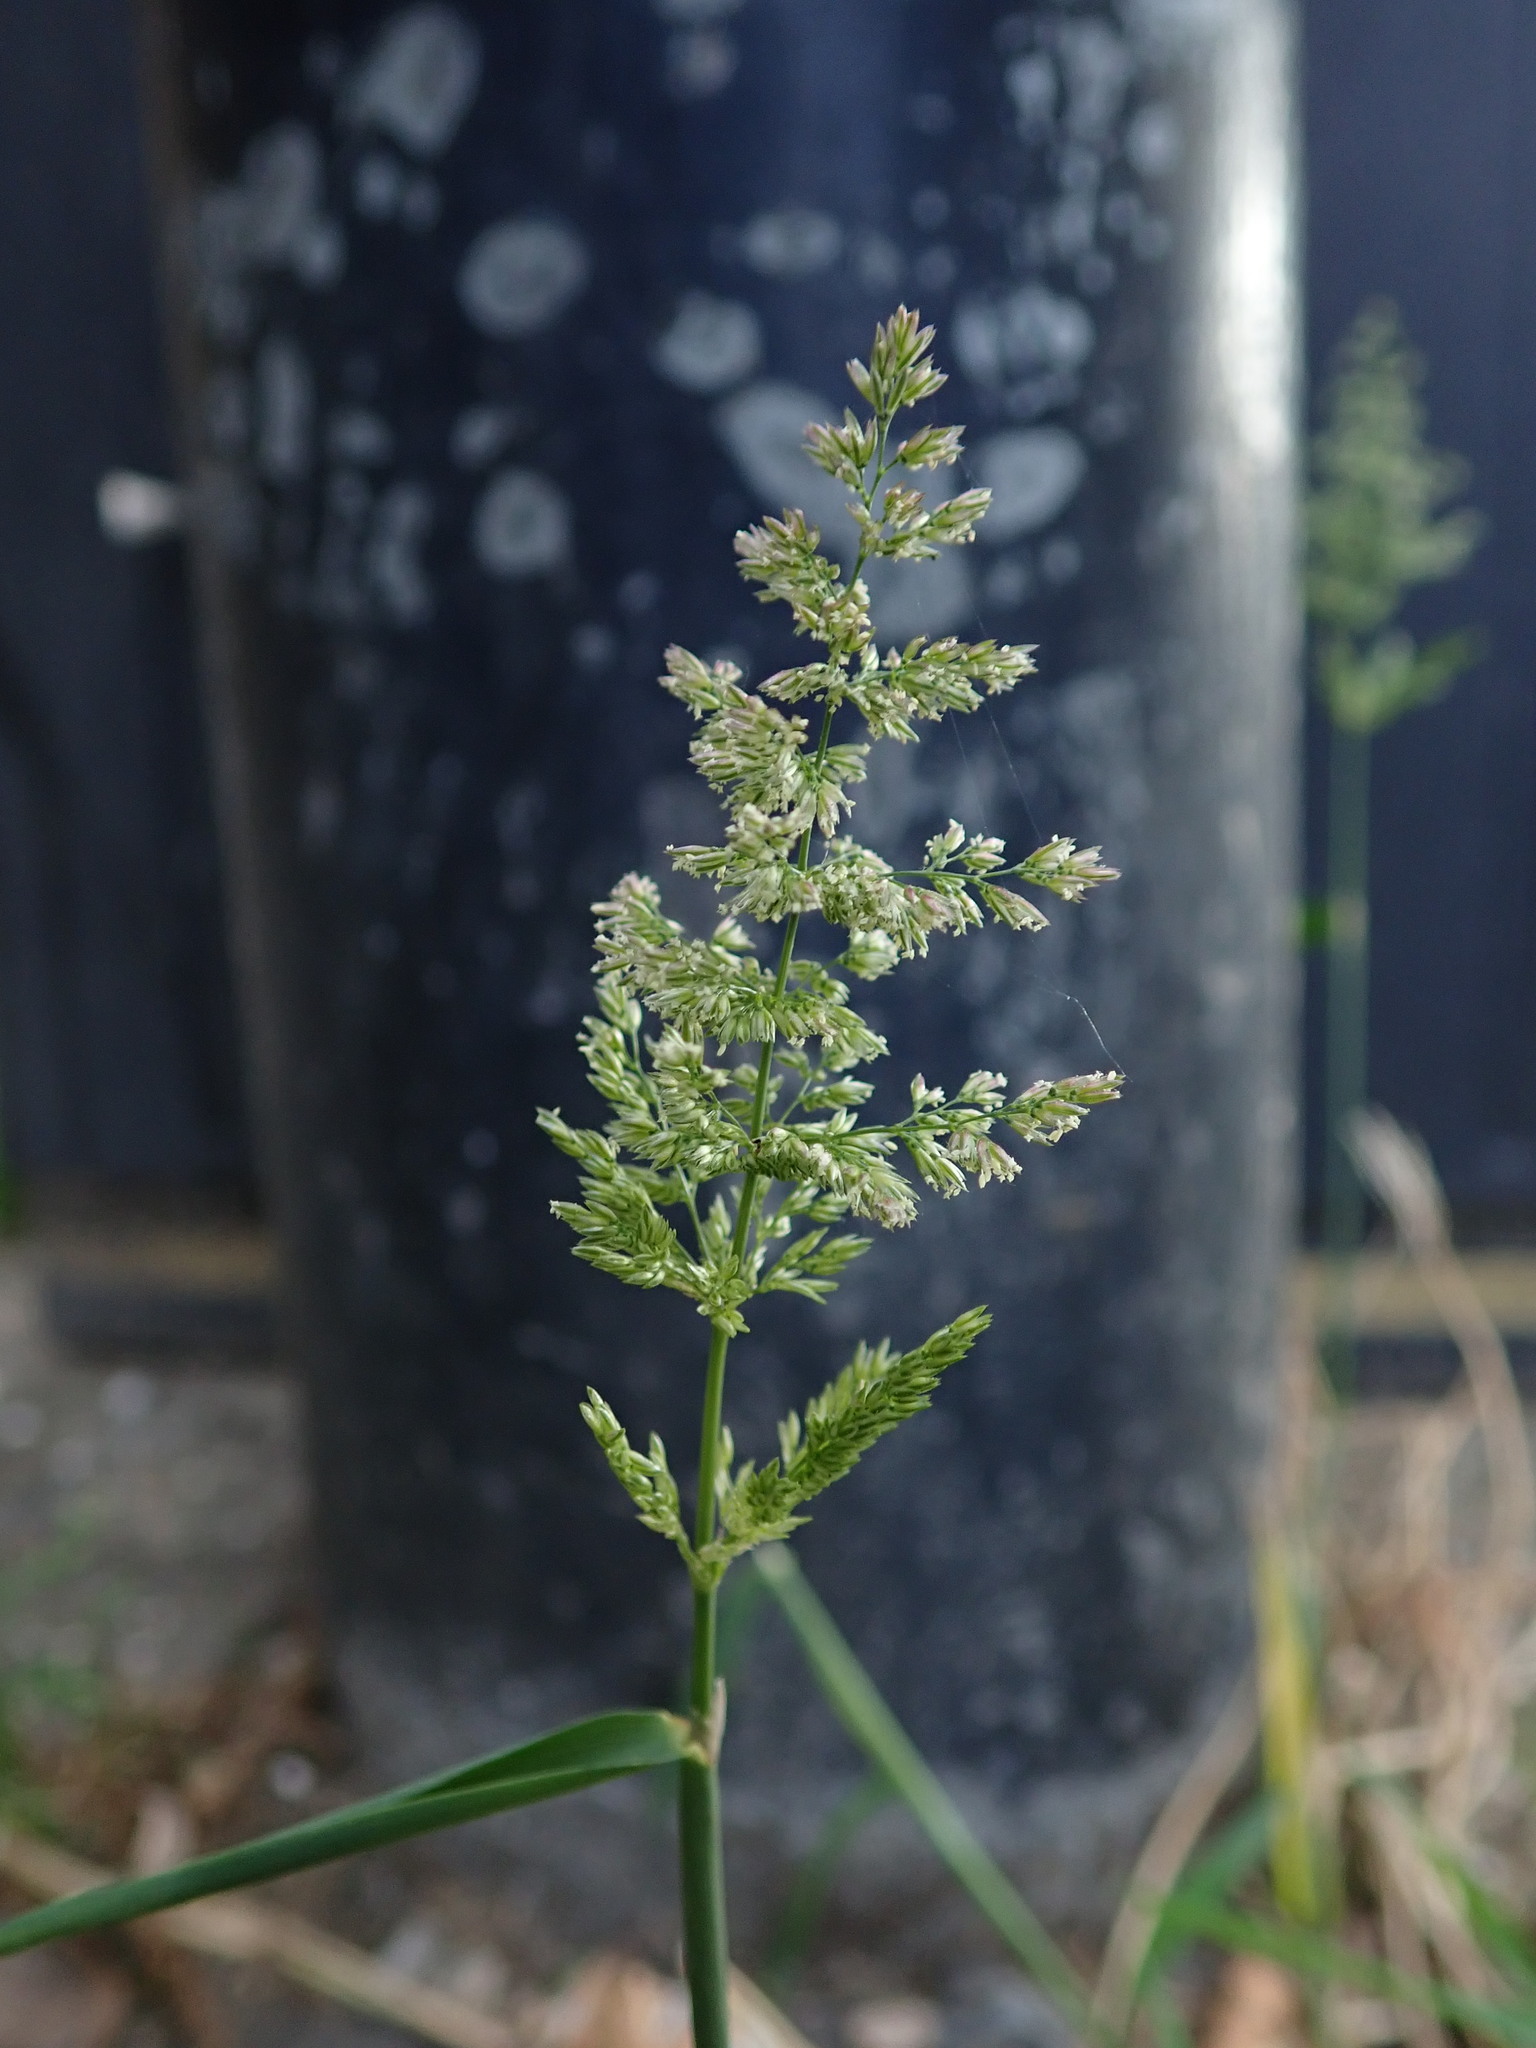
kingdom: Plantae
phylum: Tracheophyta
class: Liliopsida
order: Poales
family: Poaceae
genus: Polypogon
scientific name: Polypogon viridis
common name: Water bent
